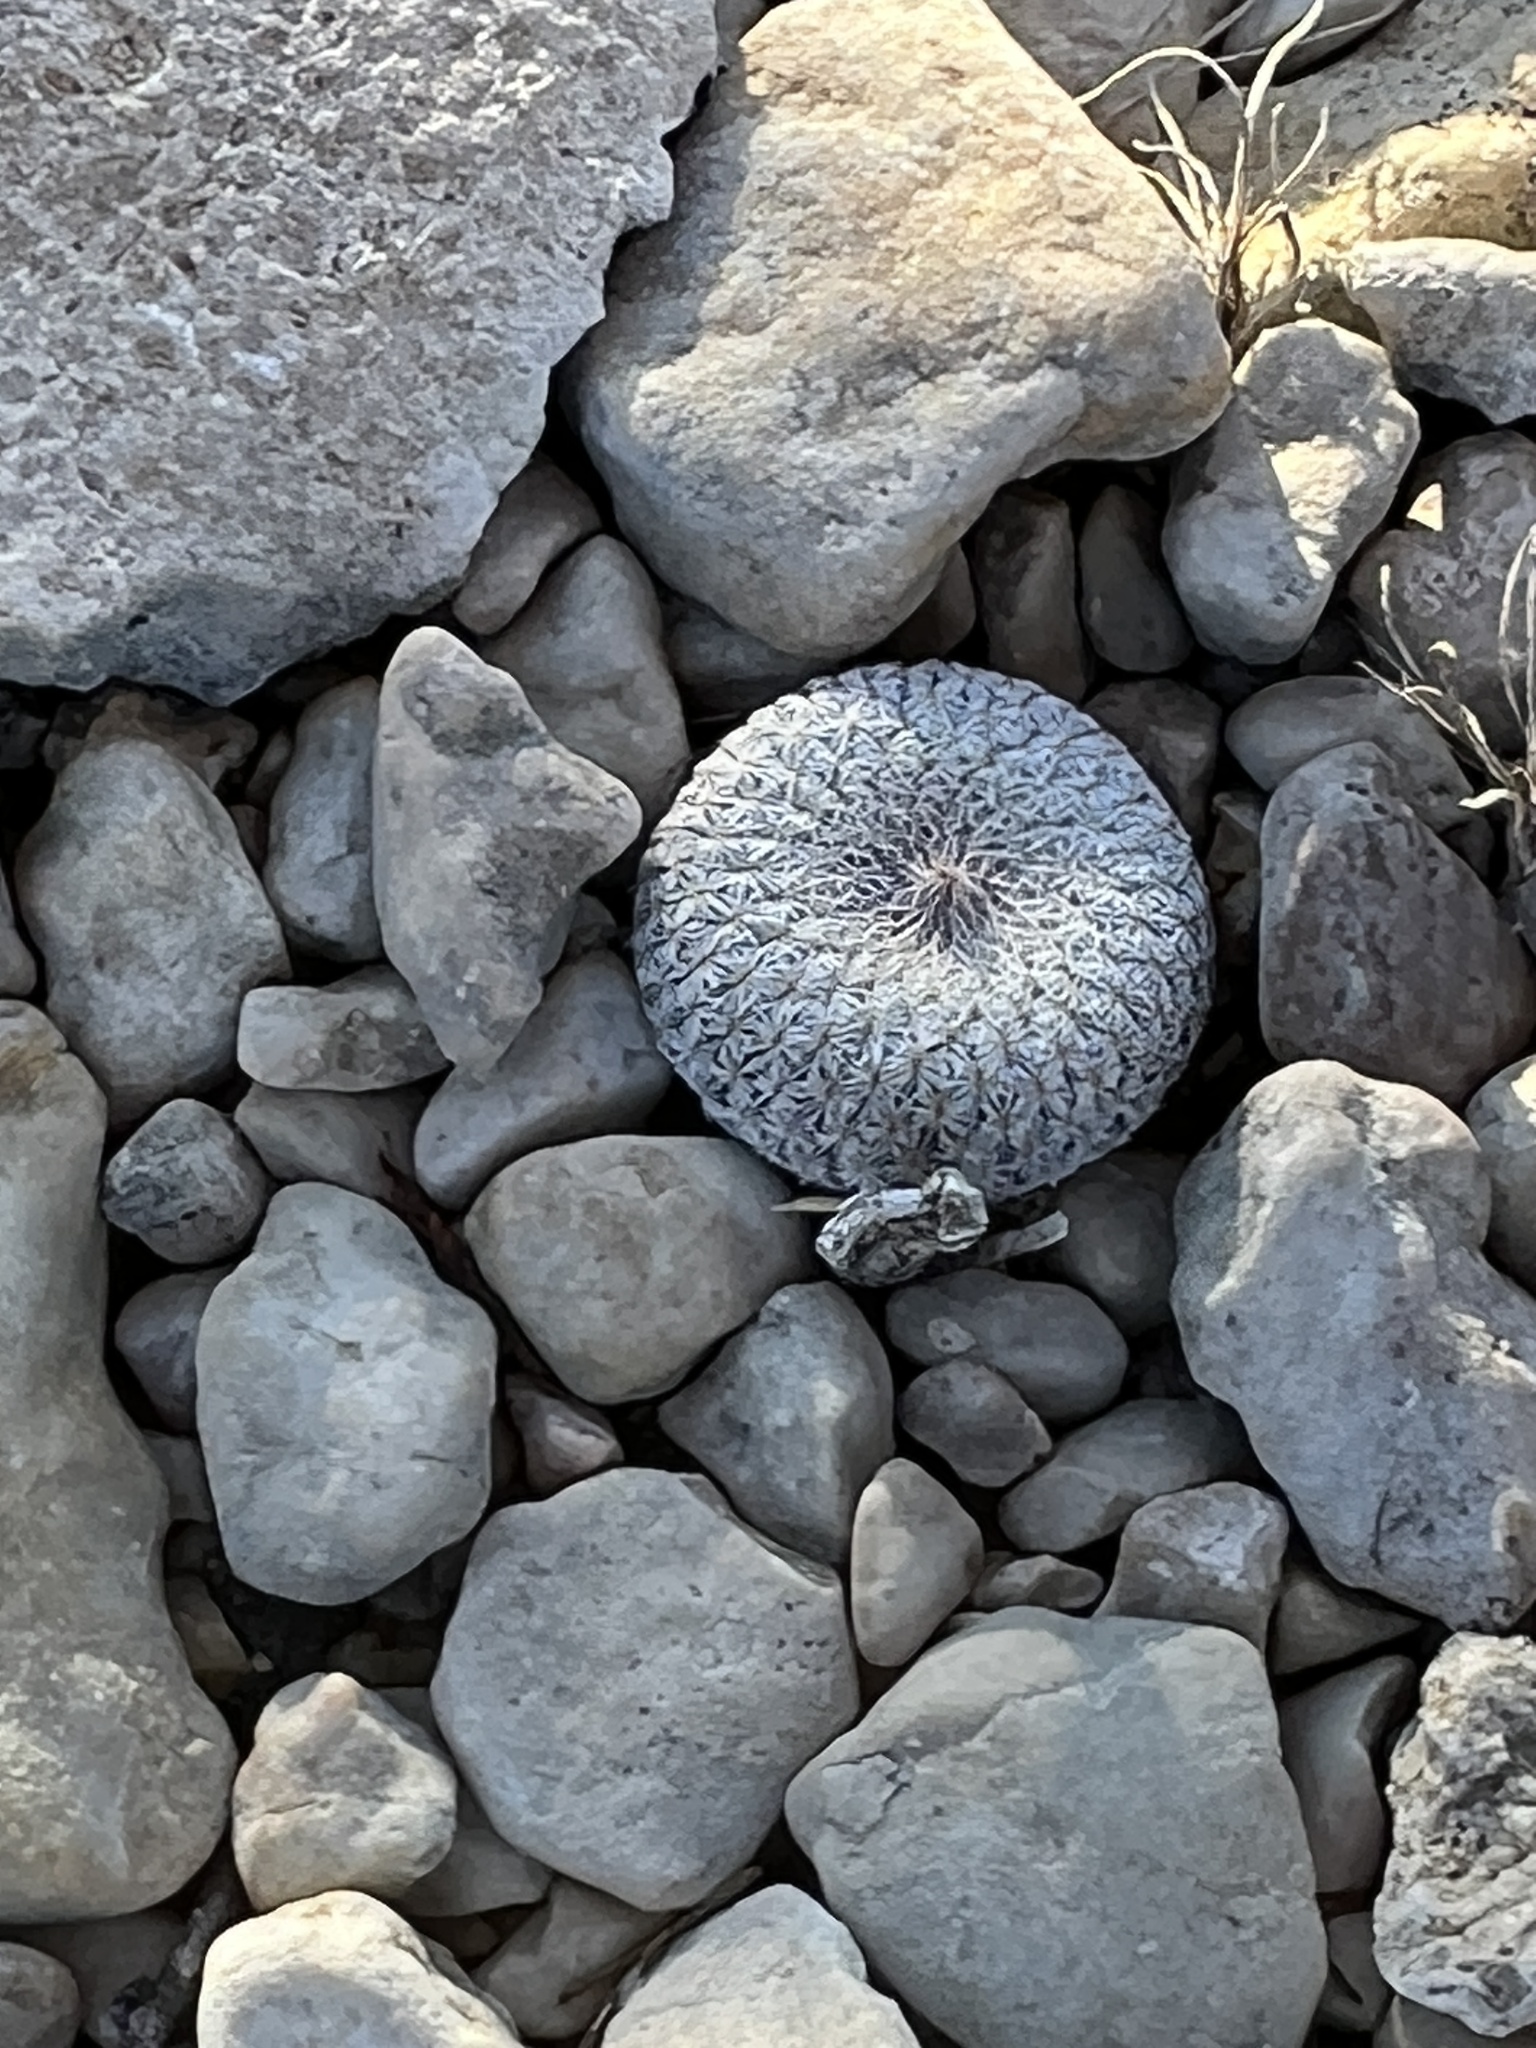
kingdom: Plantae
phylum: Tracheophyta
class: Magnoliopsida
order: Caryophyllales
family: Cactaceae
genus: Epithelantha
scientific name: Epithelantha micromeris
